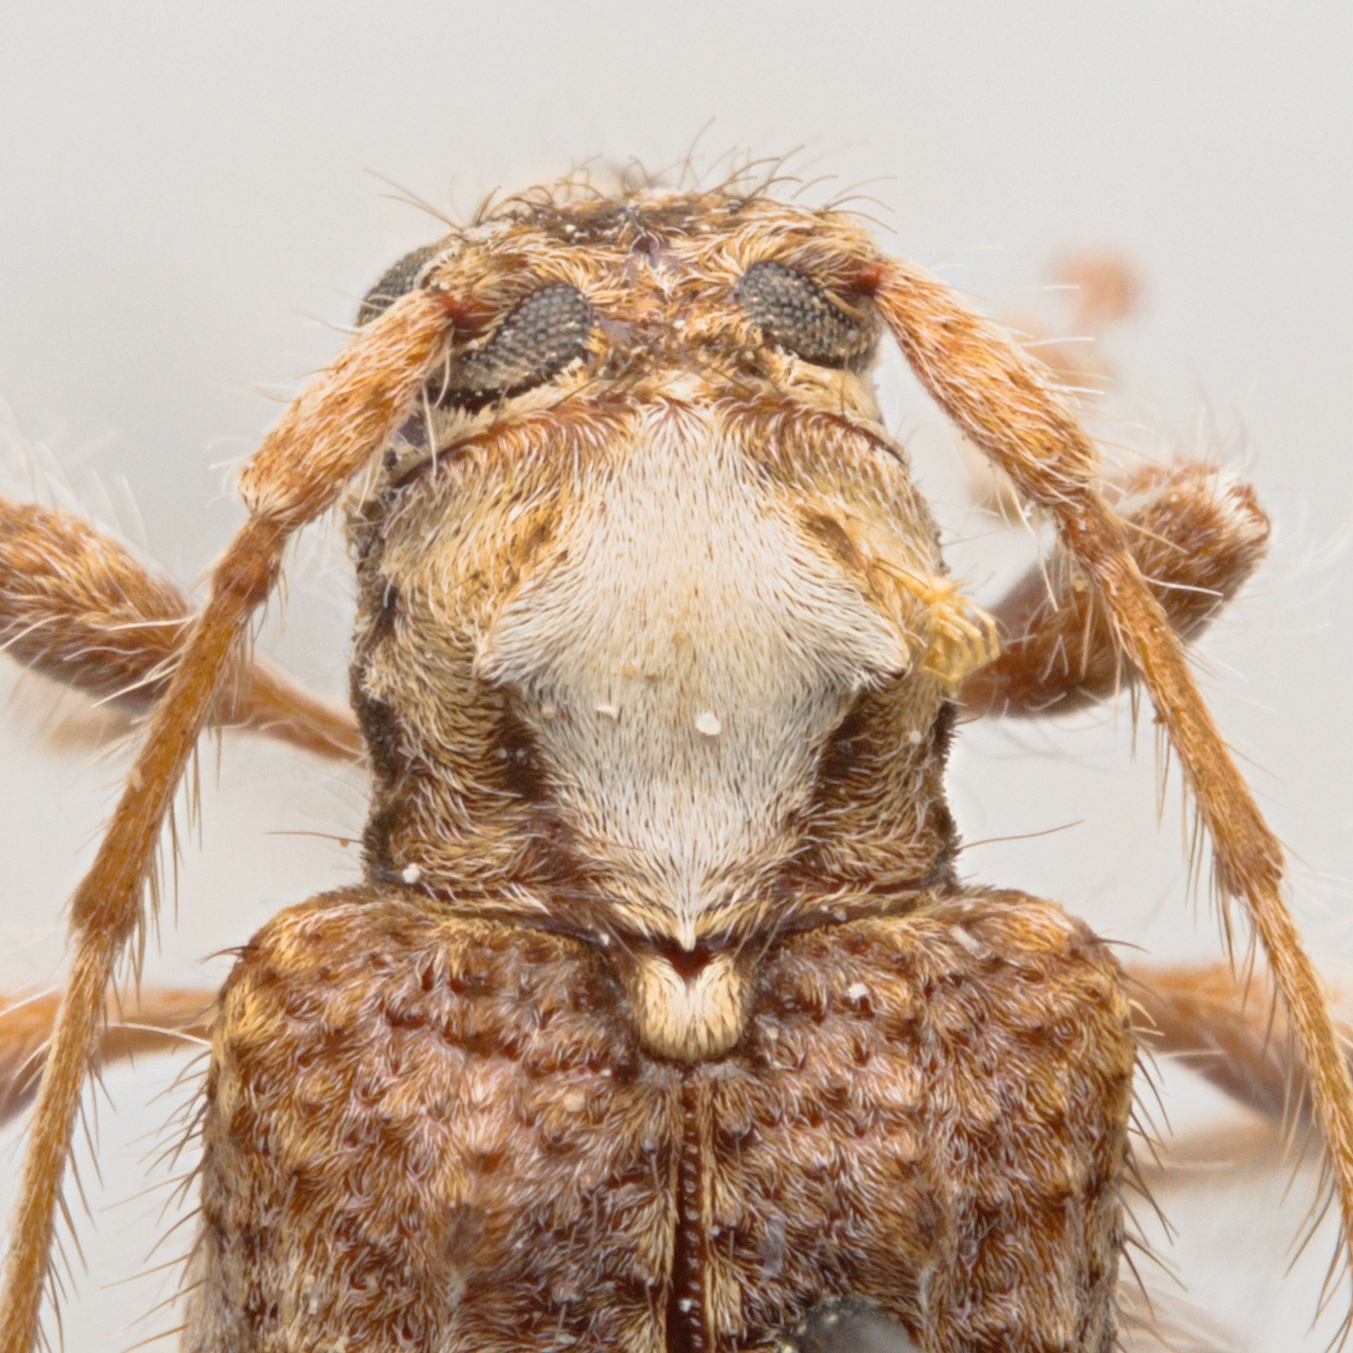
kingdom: Animalia
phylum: Arthropoda
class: Insecta
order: Coleoptera
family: Cerambycidae
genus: Callipogonius
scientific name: Callipogonius cornutus
